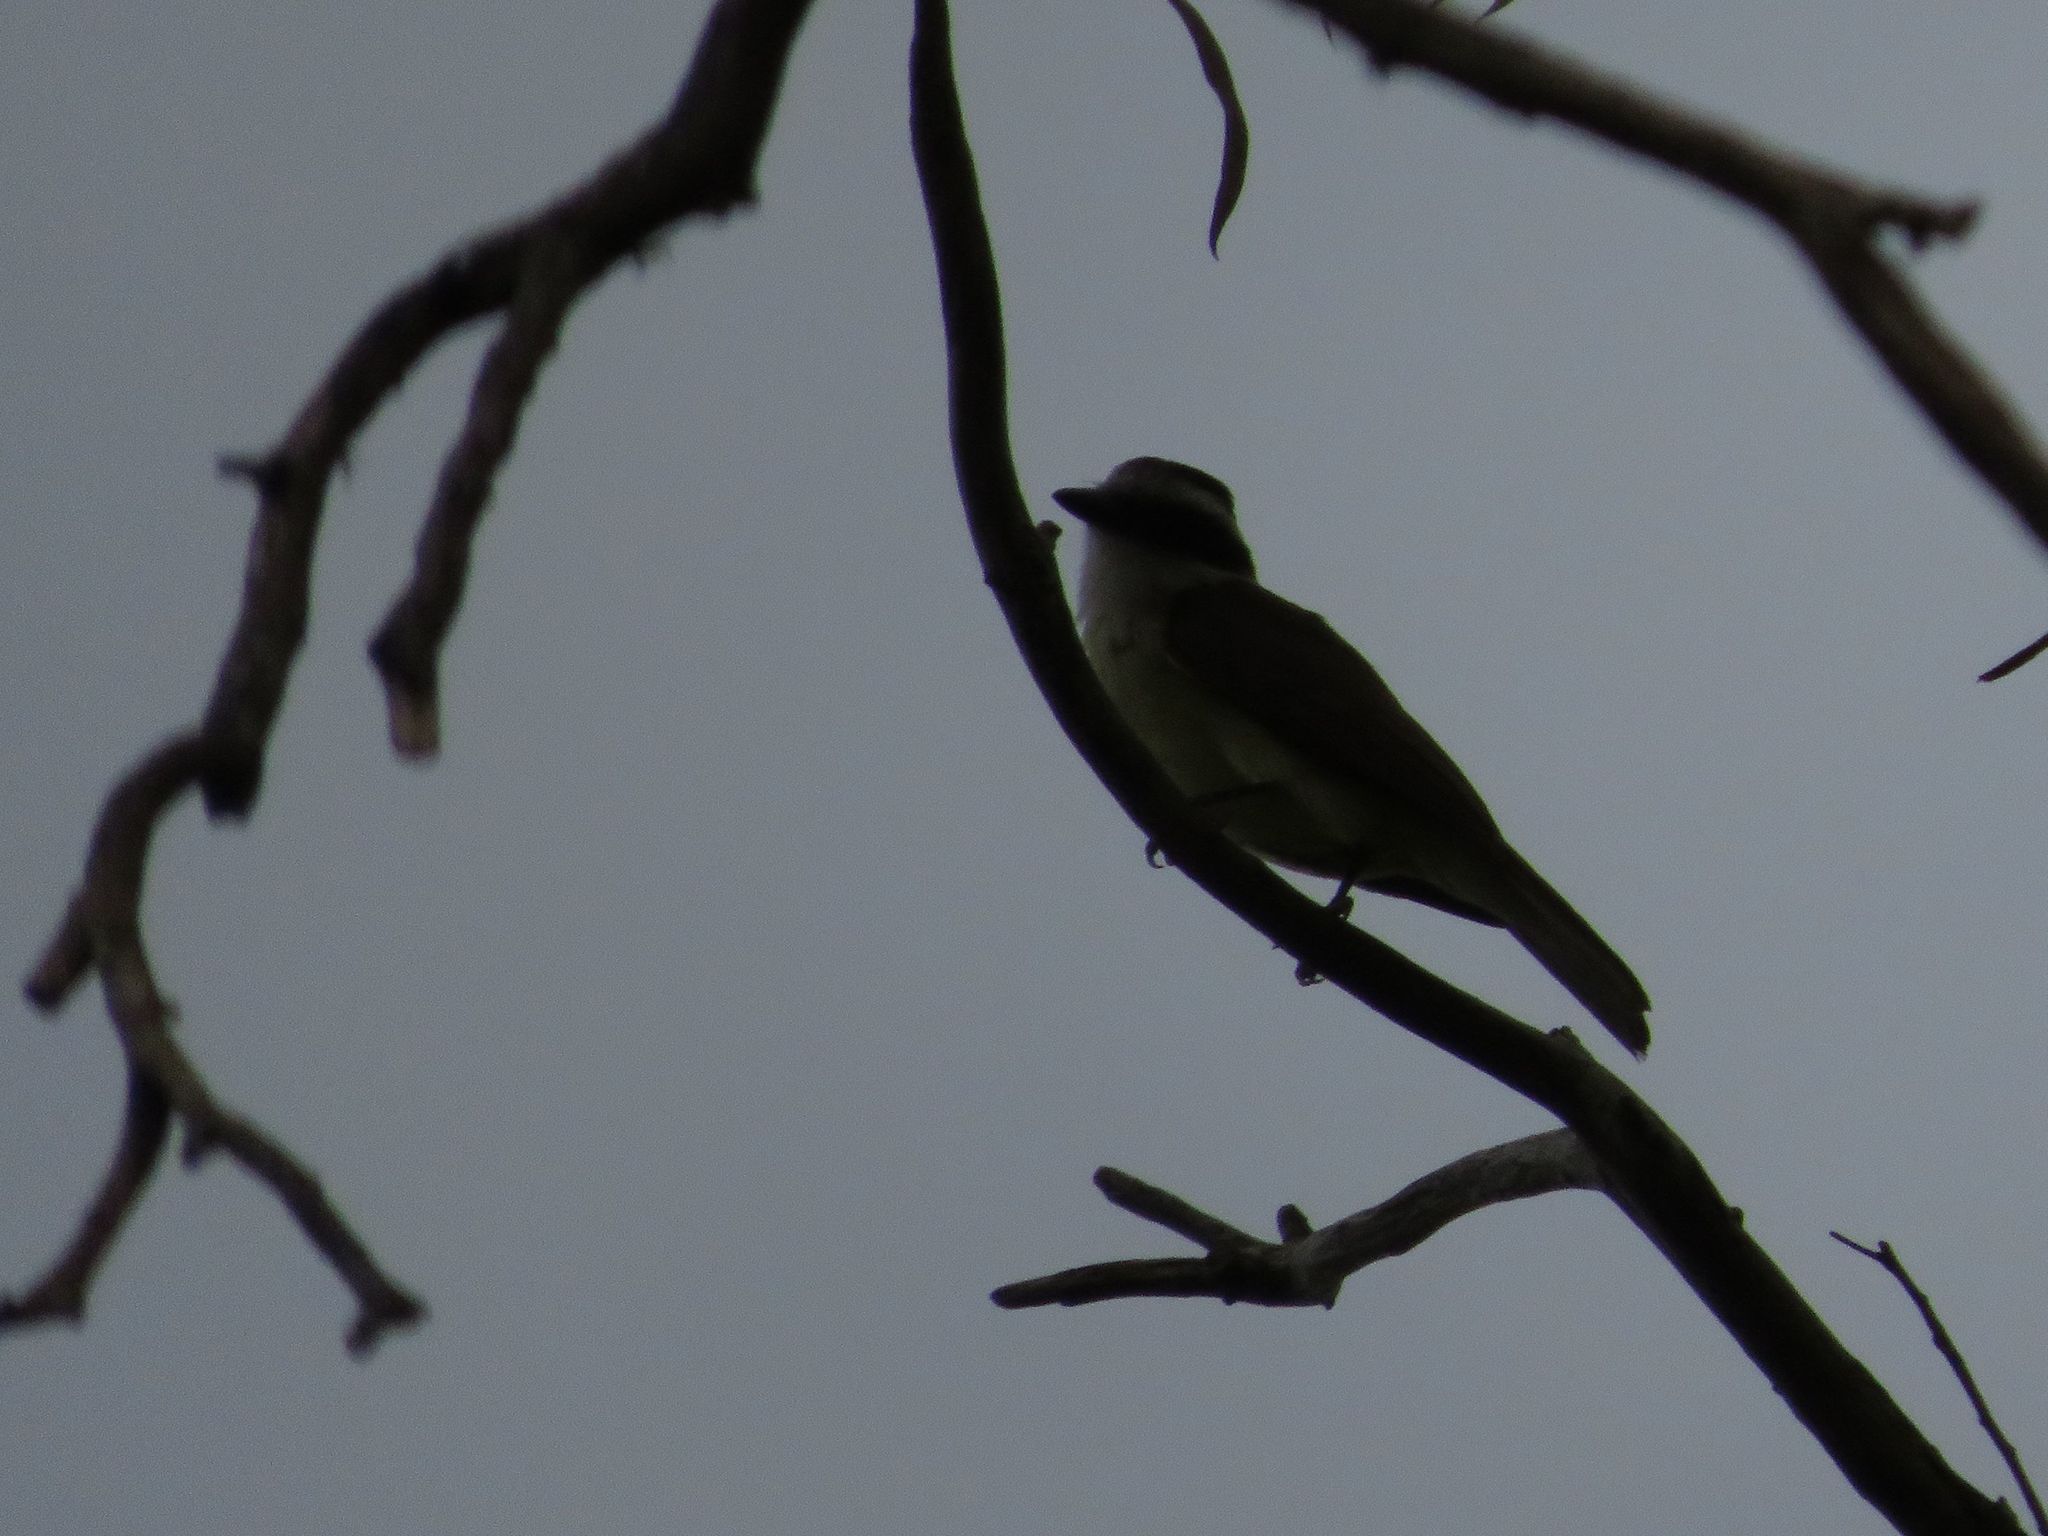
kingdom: Animalia
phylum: Chordata
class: Aves
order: Passeriformes
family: Tyrannidae
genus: Pitangus
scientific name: Pitangus sulphuratus
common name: Great kiskadee
